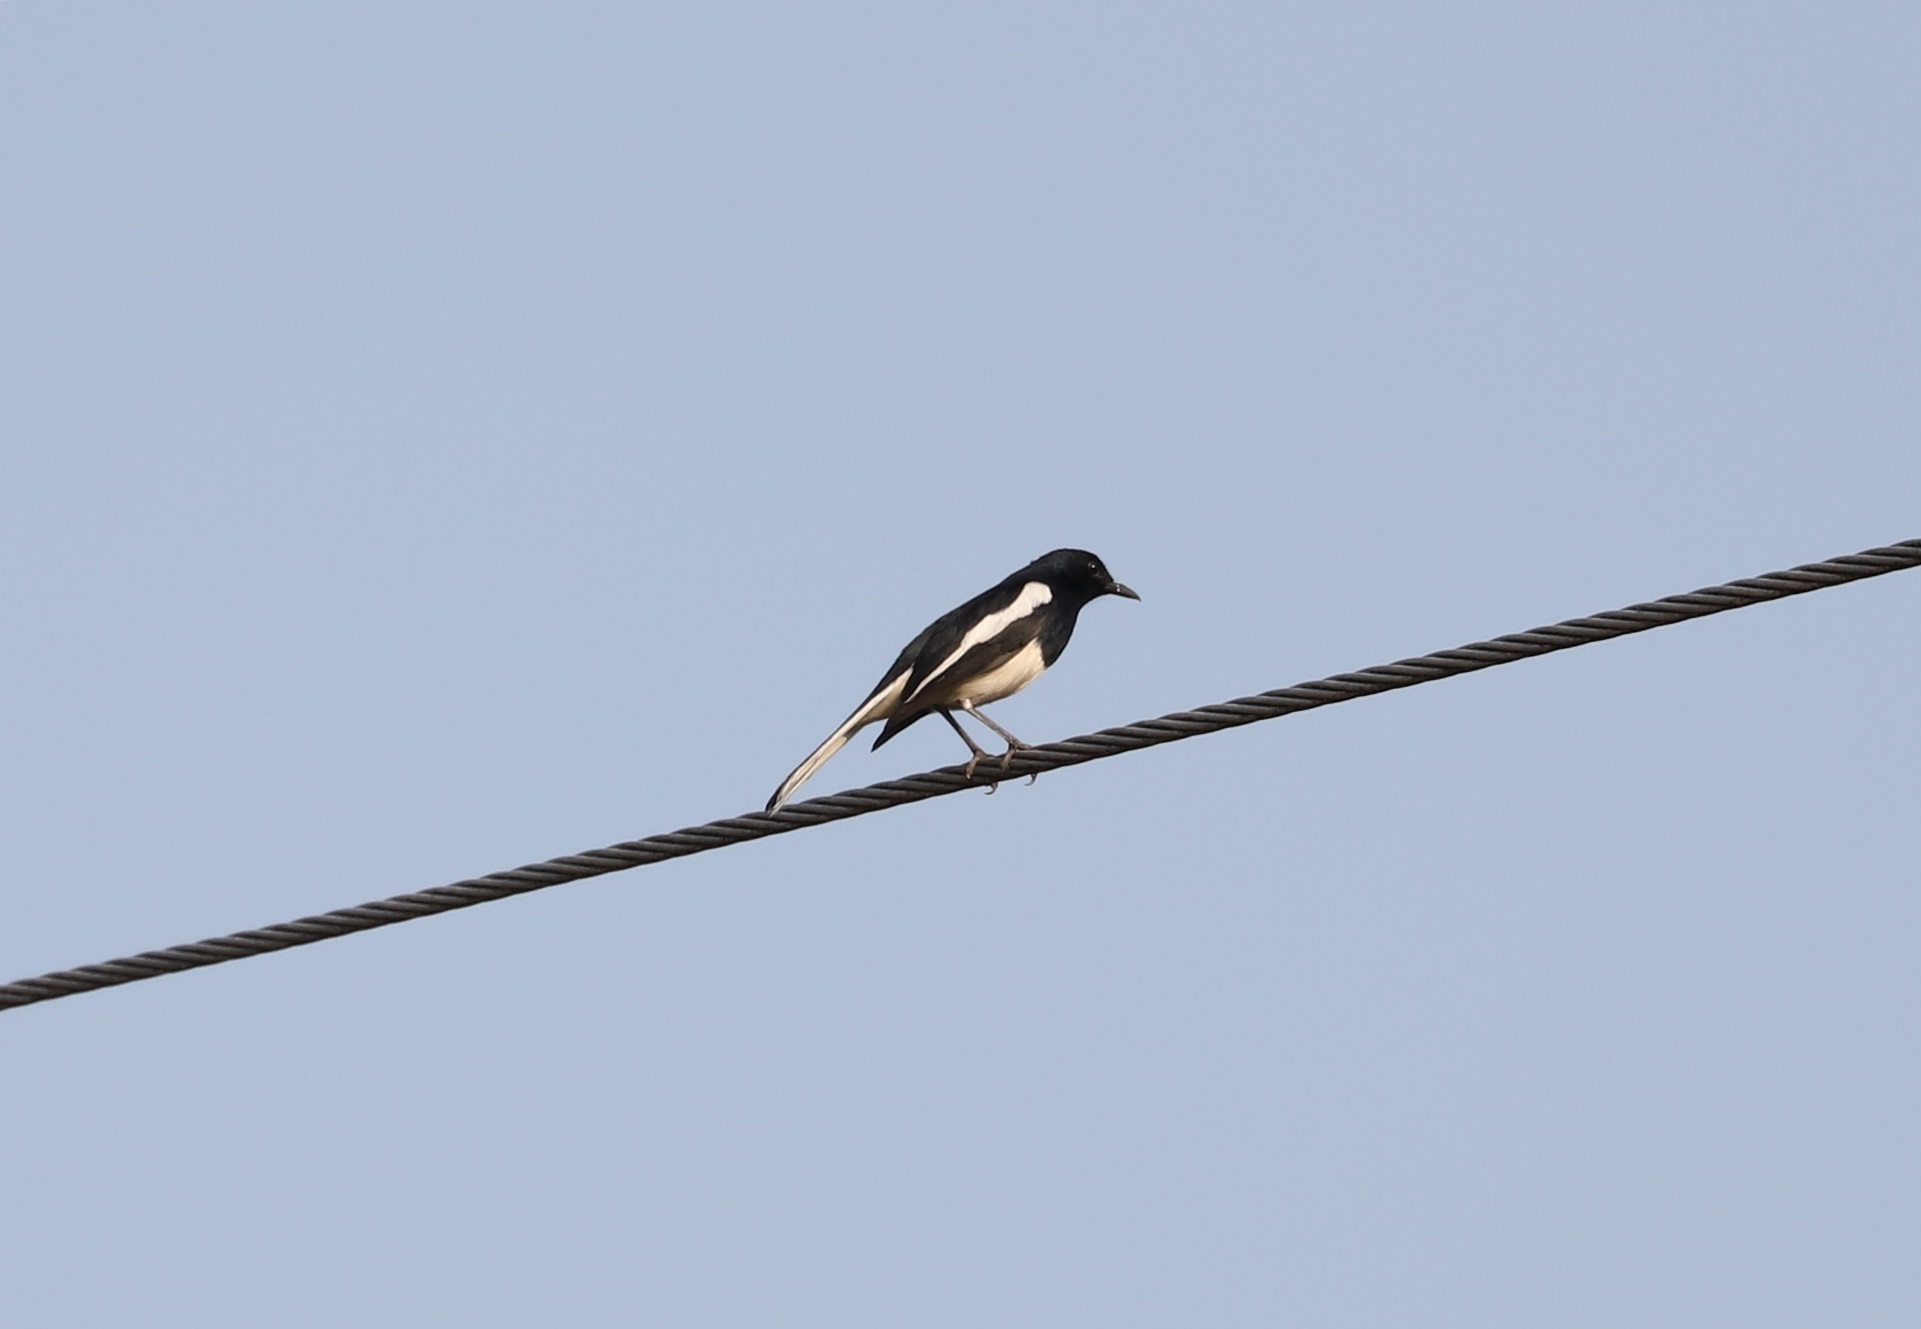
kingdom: Animalia
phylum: Chordata
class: Aves
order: Passeriformes
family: Muscicapidae
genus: Copsychus
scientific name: Copsychus saularis
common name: Oriental magpie-robin
